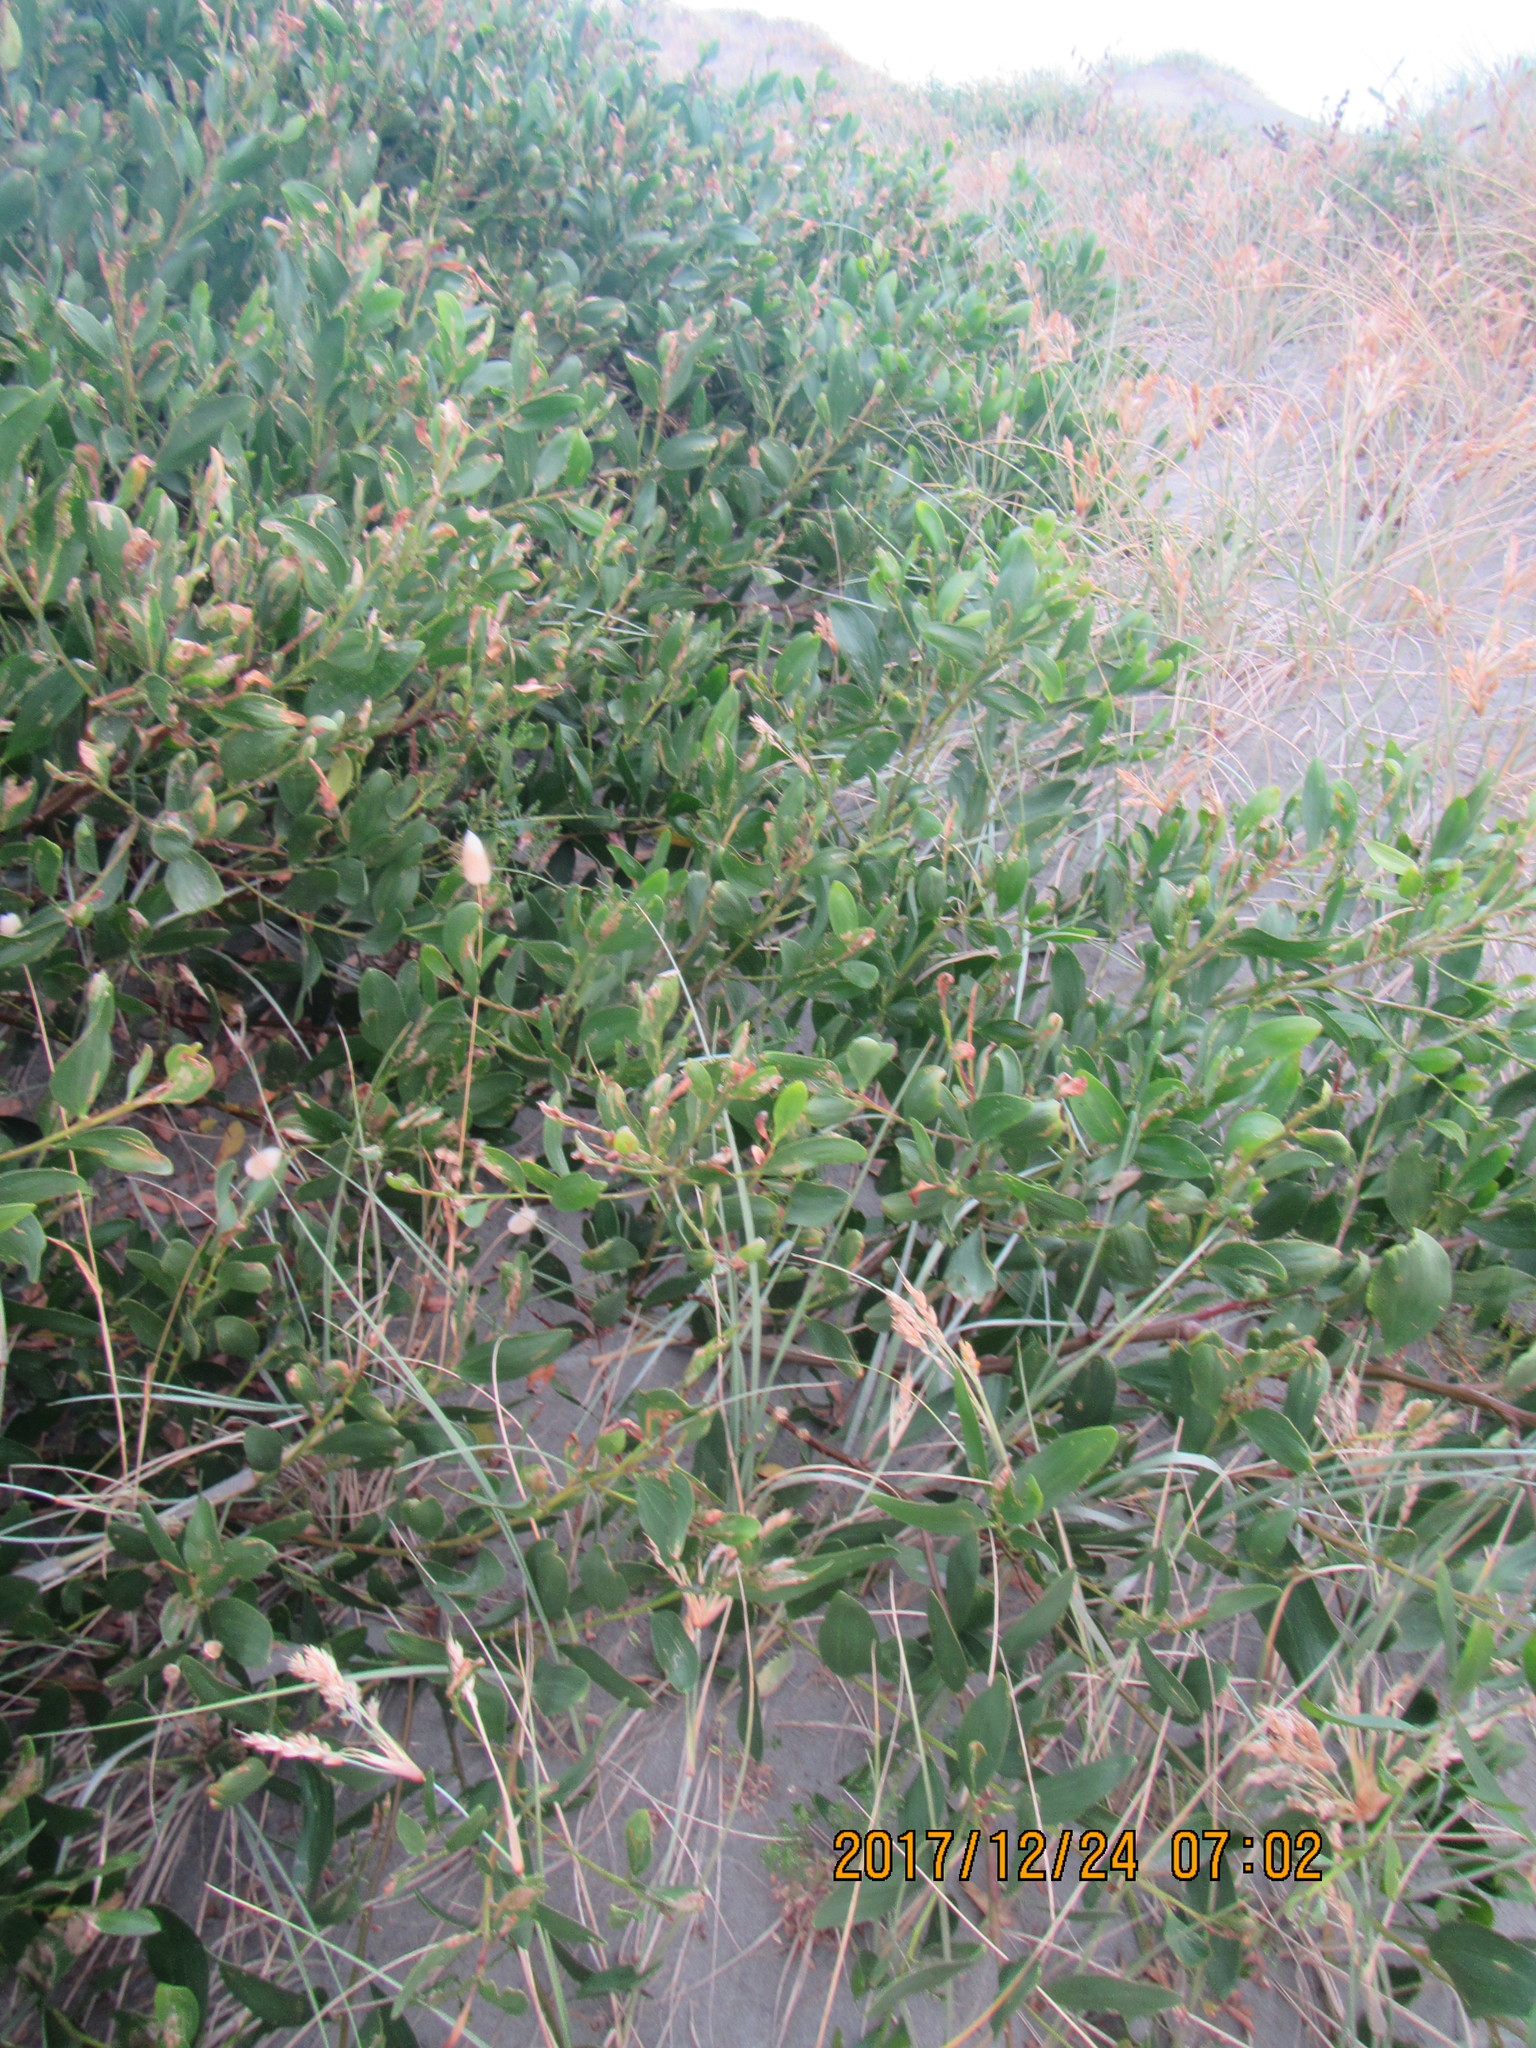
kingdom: Plantae
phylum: Tracheophyta
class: Magnoliopsida
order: Fabales
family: Fabaceae
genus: Acacia
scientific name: Acacia longifolia
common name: Sydney golden wattle
